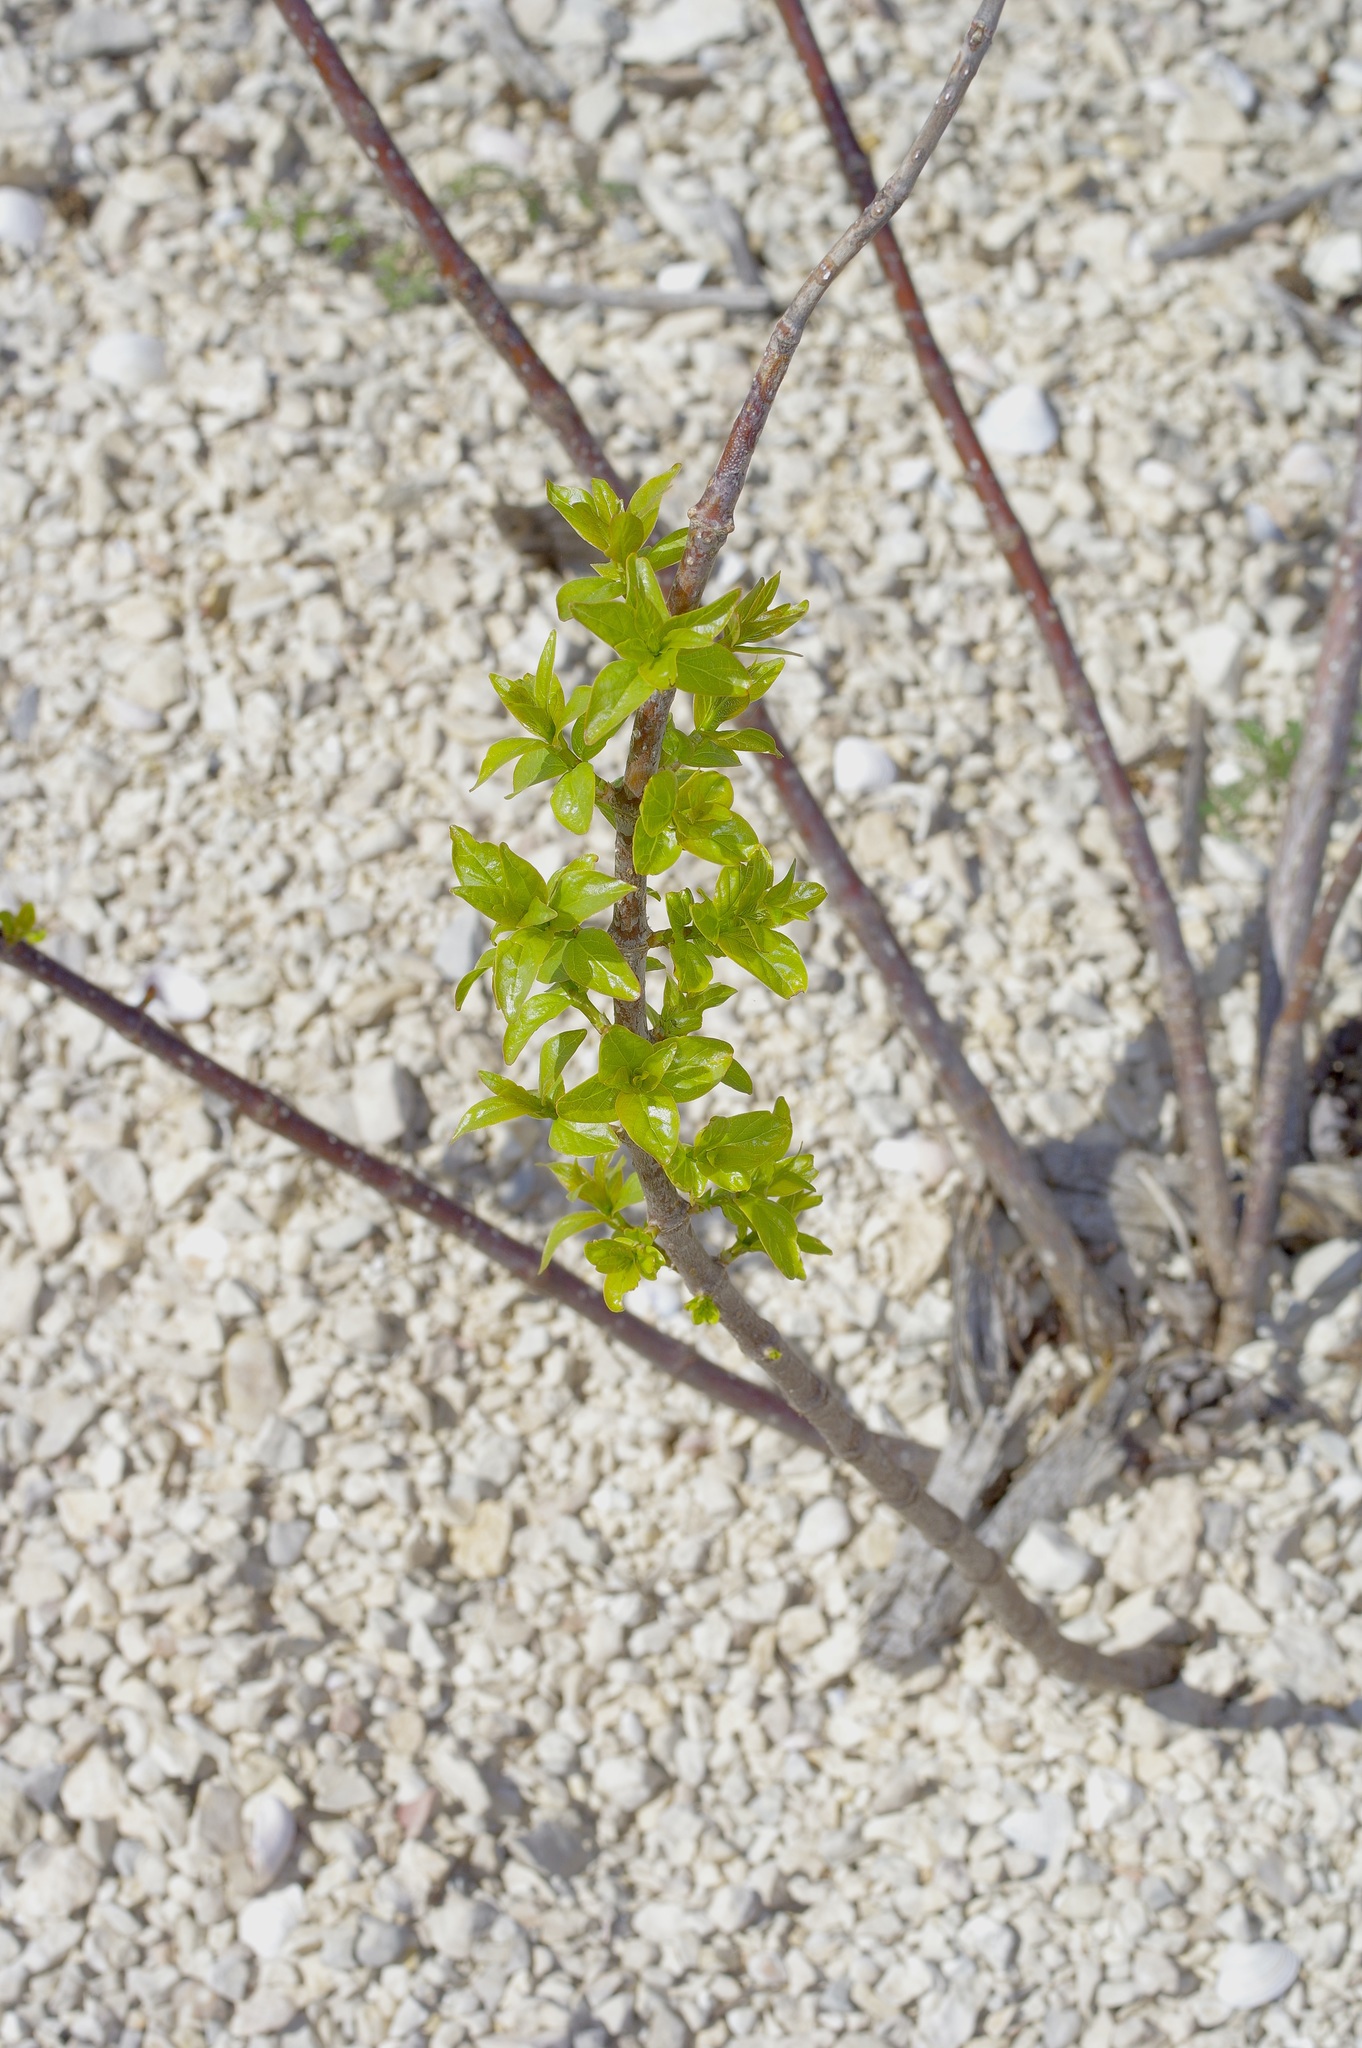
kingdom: Plantae
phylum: Tracheophyta
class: Magnoliopsida
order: Gentianales
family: Rubiaceae
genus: Cephalanthus
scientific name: Cephalanthus occidentalis
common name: Button-willow
